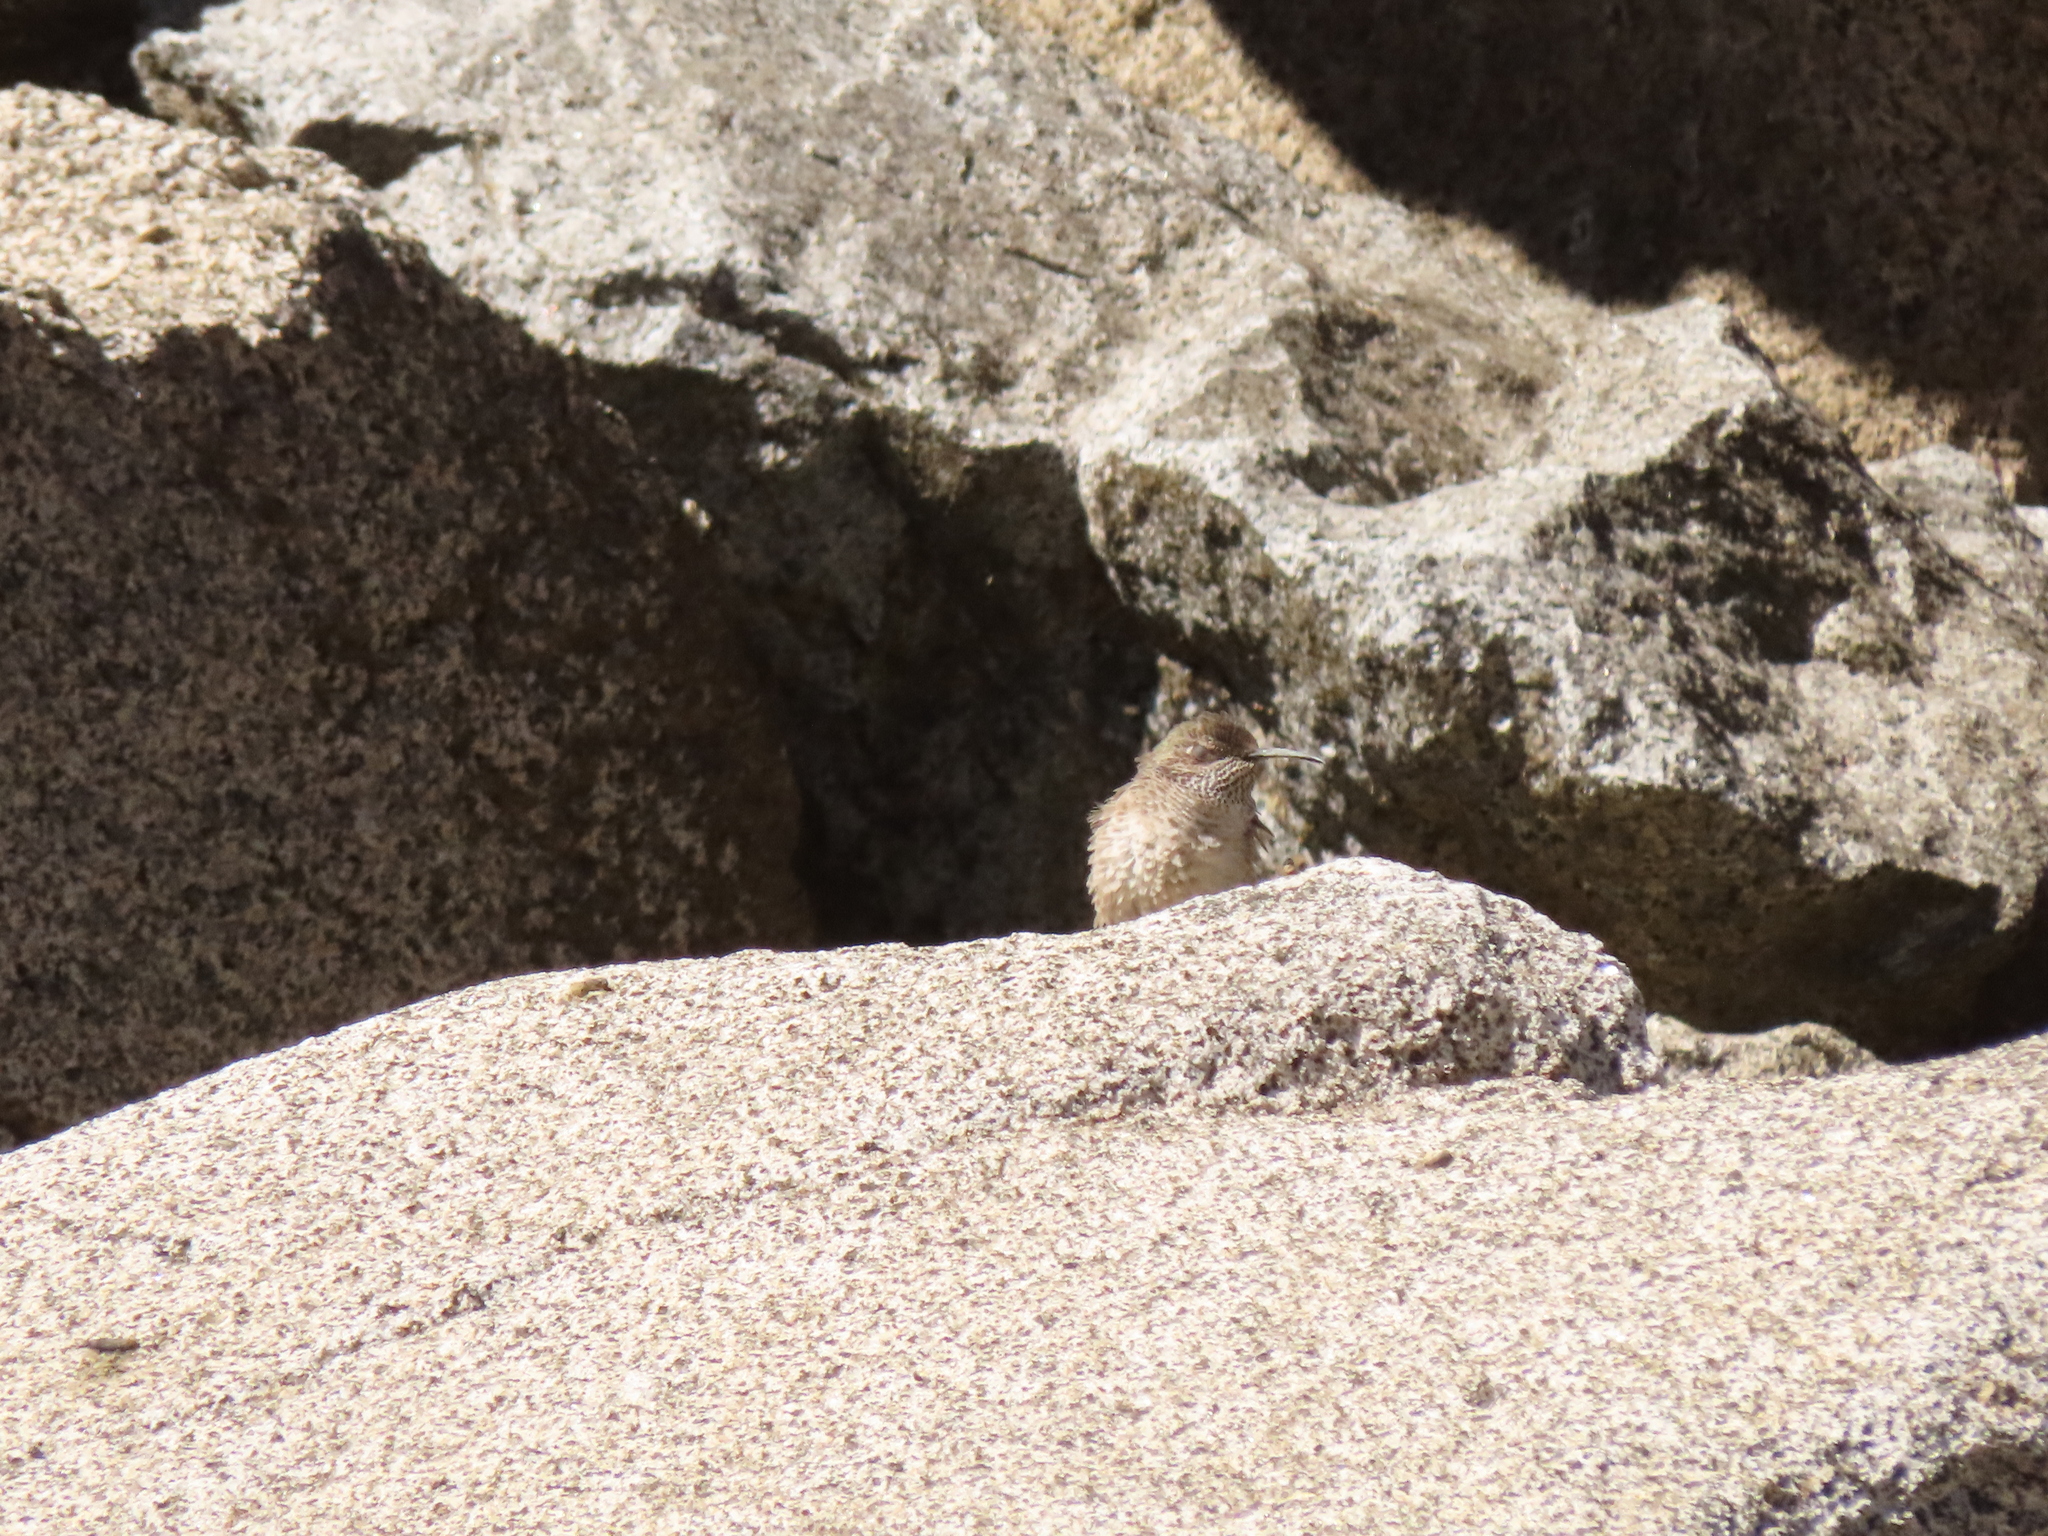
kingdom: Animalia
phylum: Chordata
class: Aves
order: Apodiformes
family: Trochilidae
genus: Oreotrochilus
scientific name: Oreotrochilus leucopleurus
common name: White-sided hillstar
